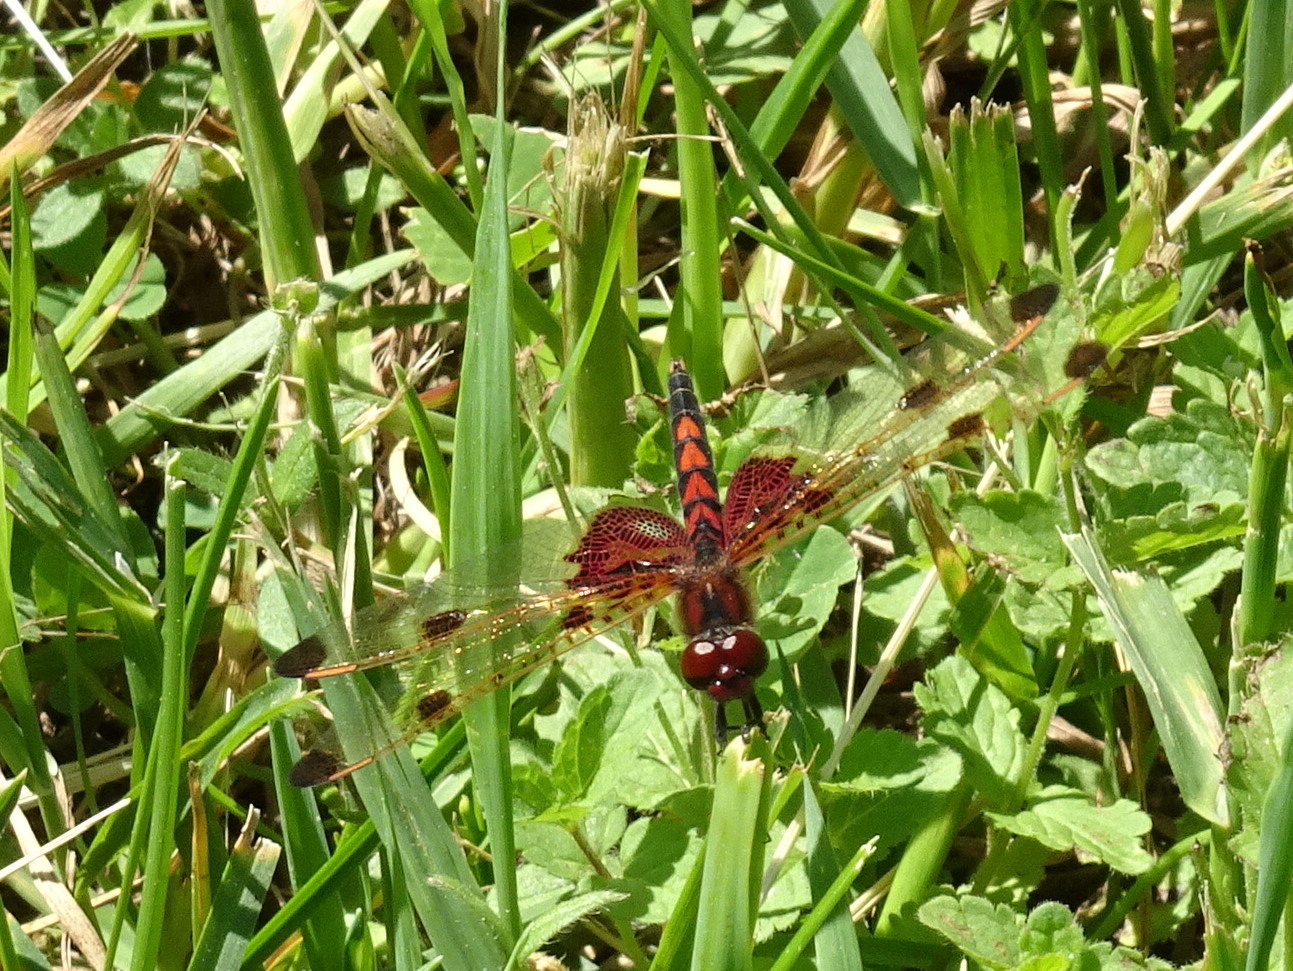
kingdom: Animalia
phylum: Arthropoda
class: Insecta
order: Odonata
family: Libellulidae
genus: Celithemis
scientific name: Celithemis elisa
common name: Calico pennant
